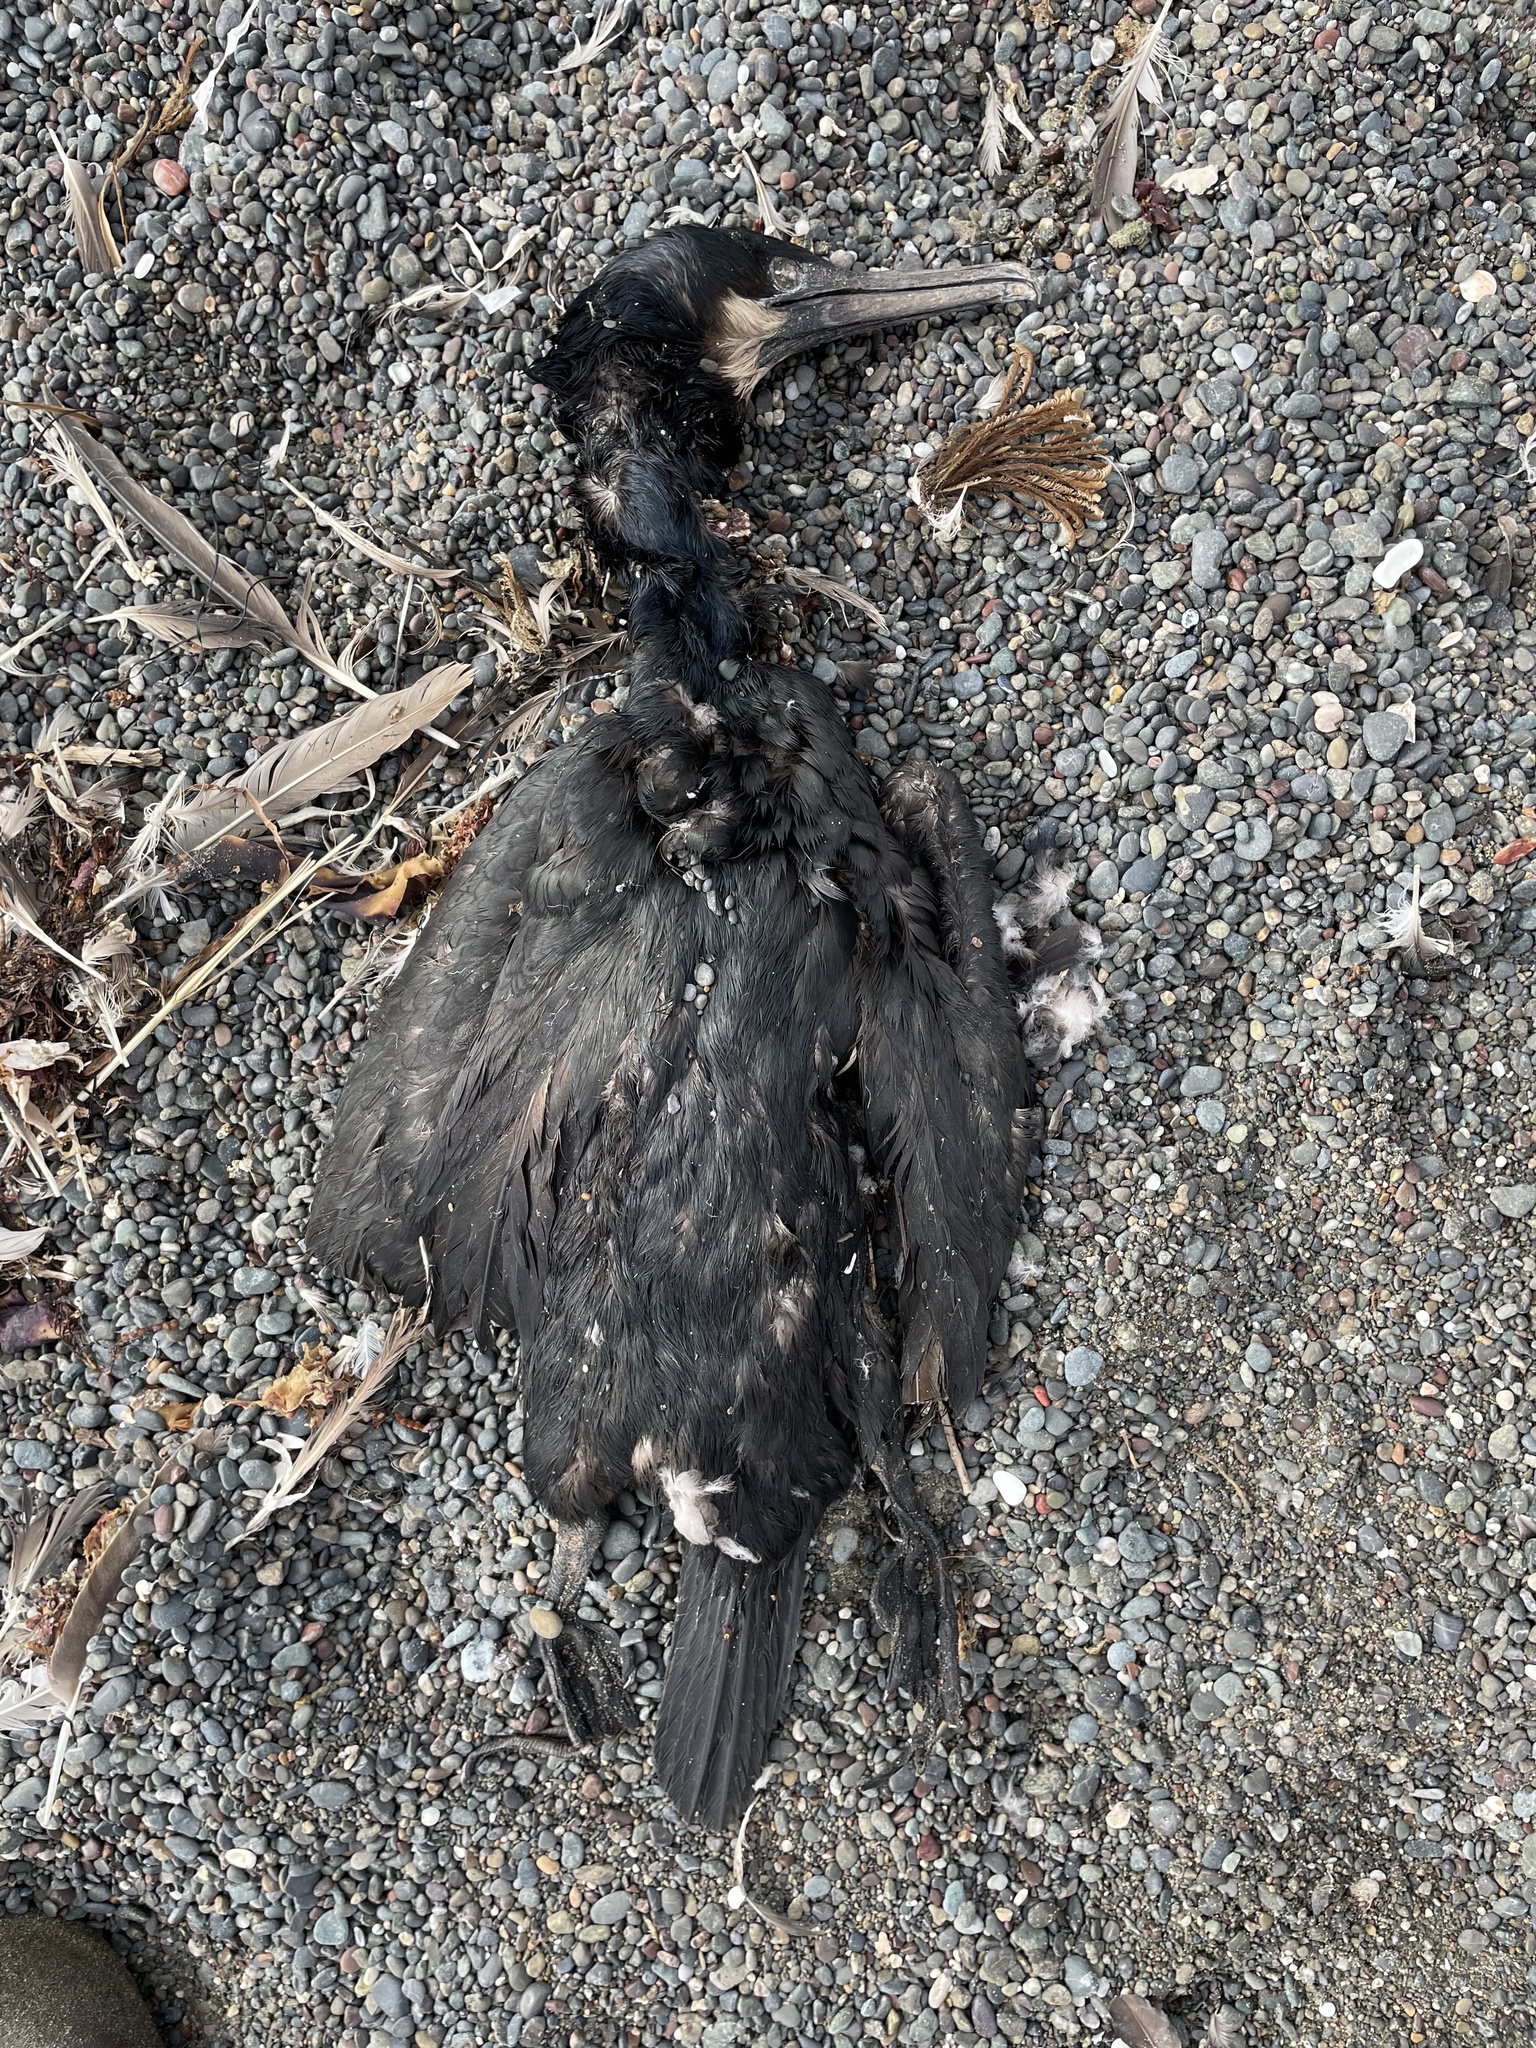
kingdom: Animalia
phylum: Chordata
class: Aves
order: Suliformes
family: Phalacrocoracidae
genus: Urile
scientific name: Urile penicillatus
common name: Brandt's cormorant
